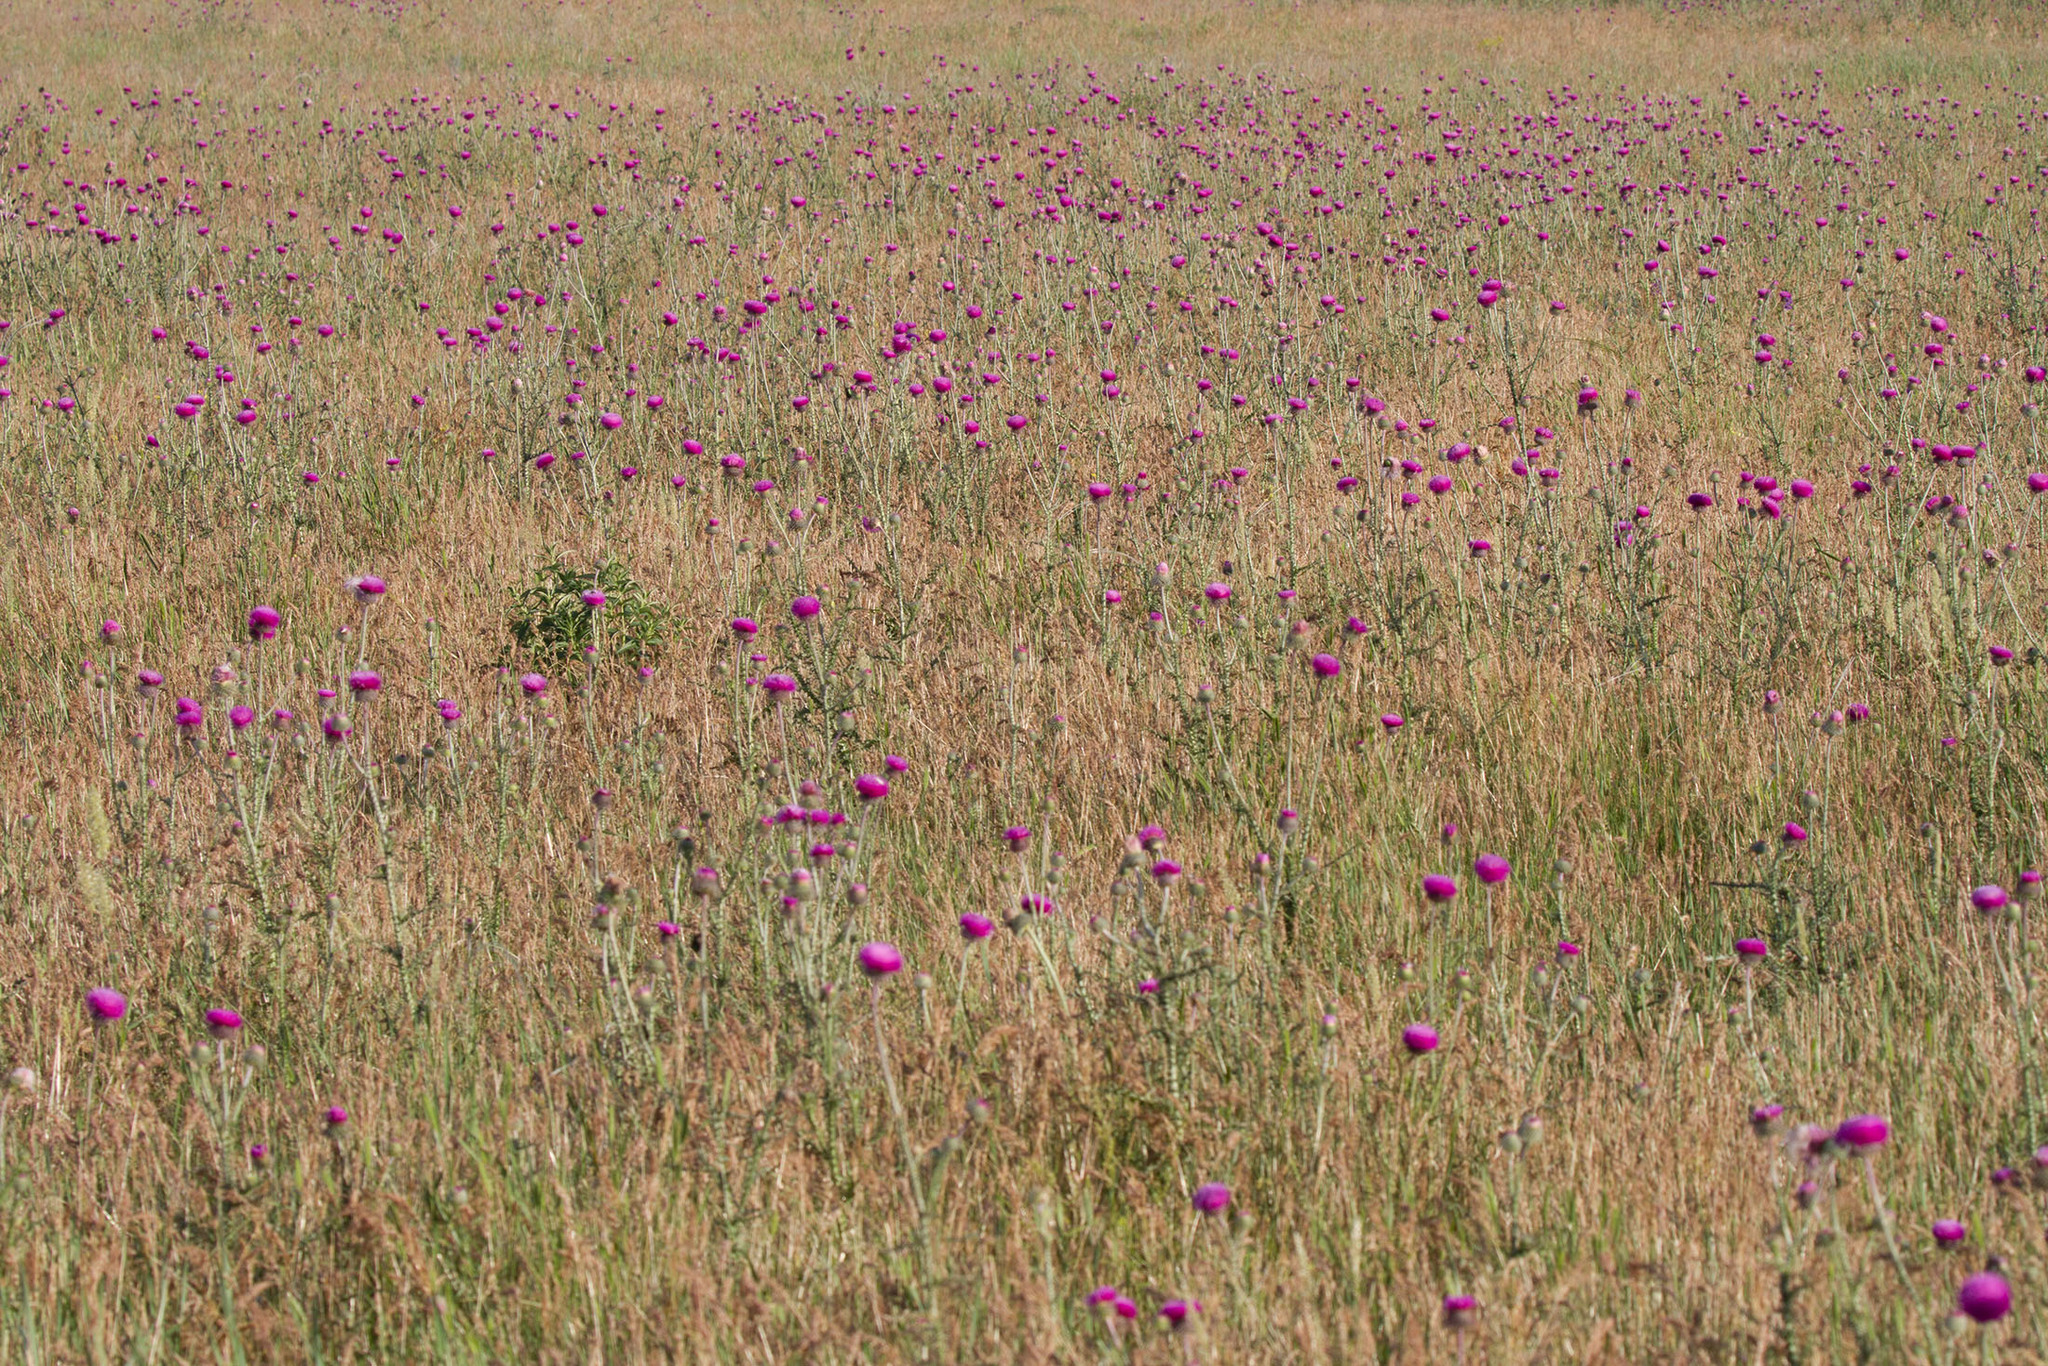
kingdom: Plantae
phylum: Tracheophyta
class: Magnoliopsida
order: Asterales
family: Asteraceae
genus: Carduus
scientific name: Carduus uncinatus
